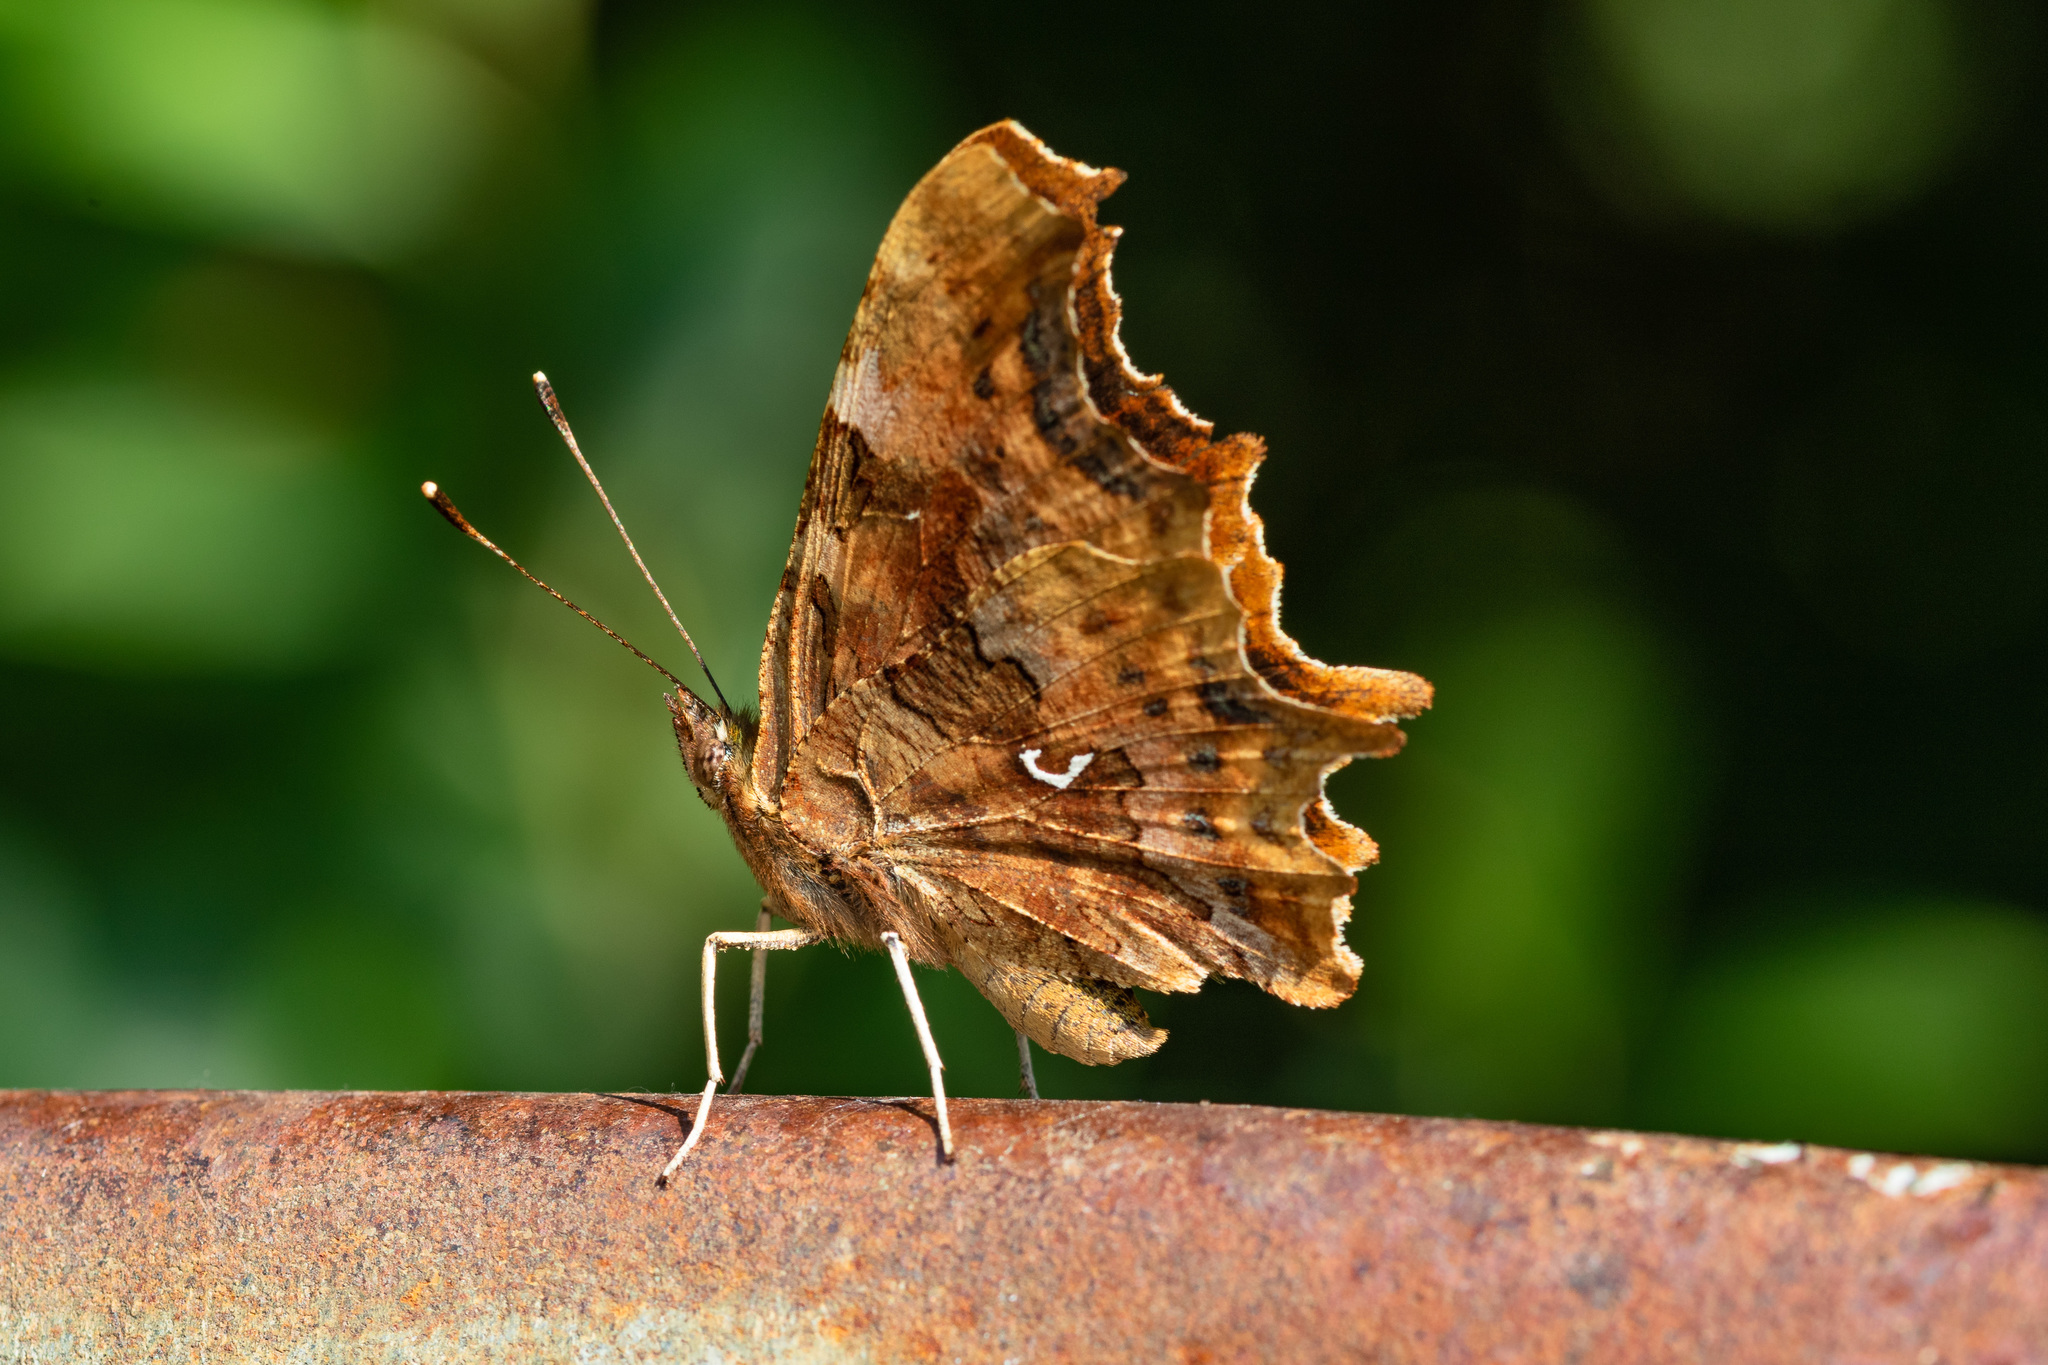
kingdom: Animalia
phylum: Arthropoda
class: Insecta
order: Lepidoptera
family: Nymphalidae
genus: Polygonia
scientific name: Polygonia c-album
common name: Comma
